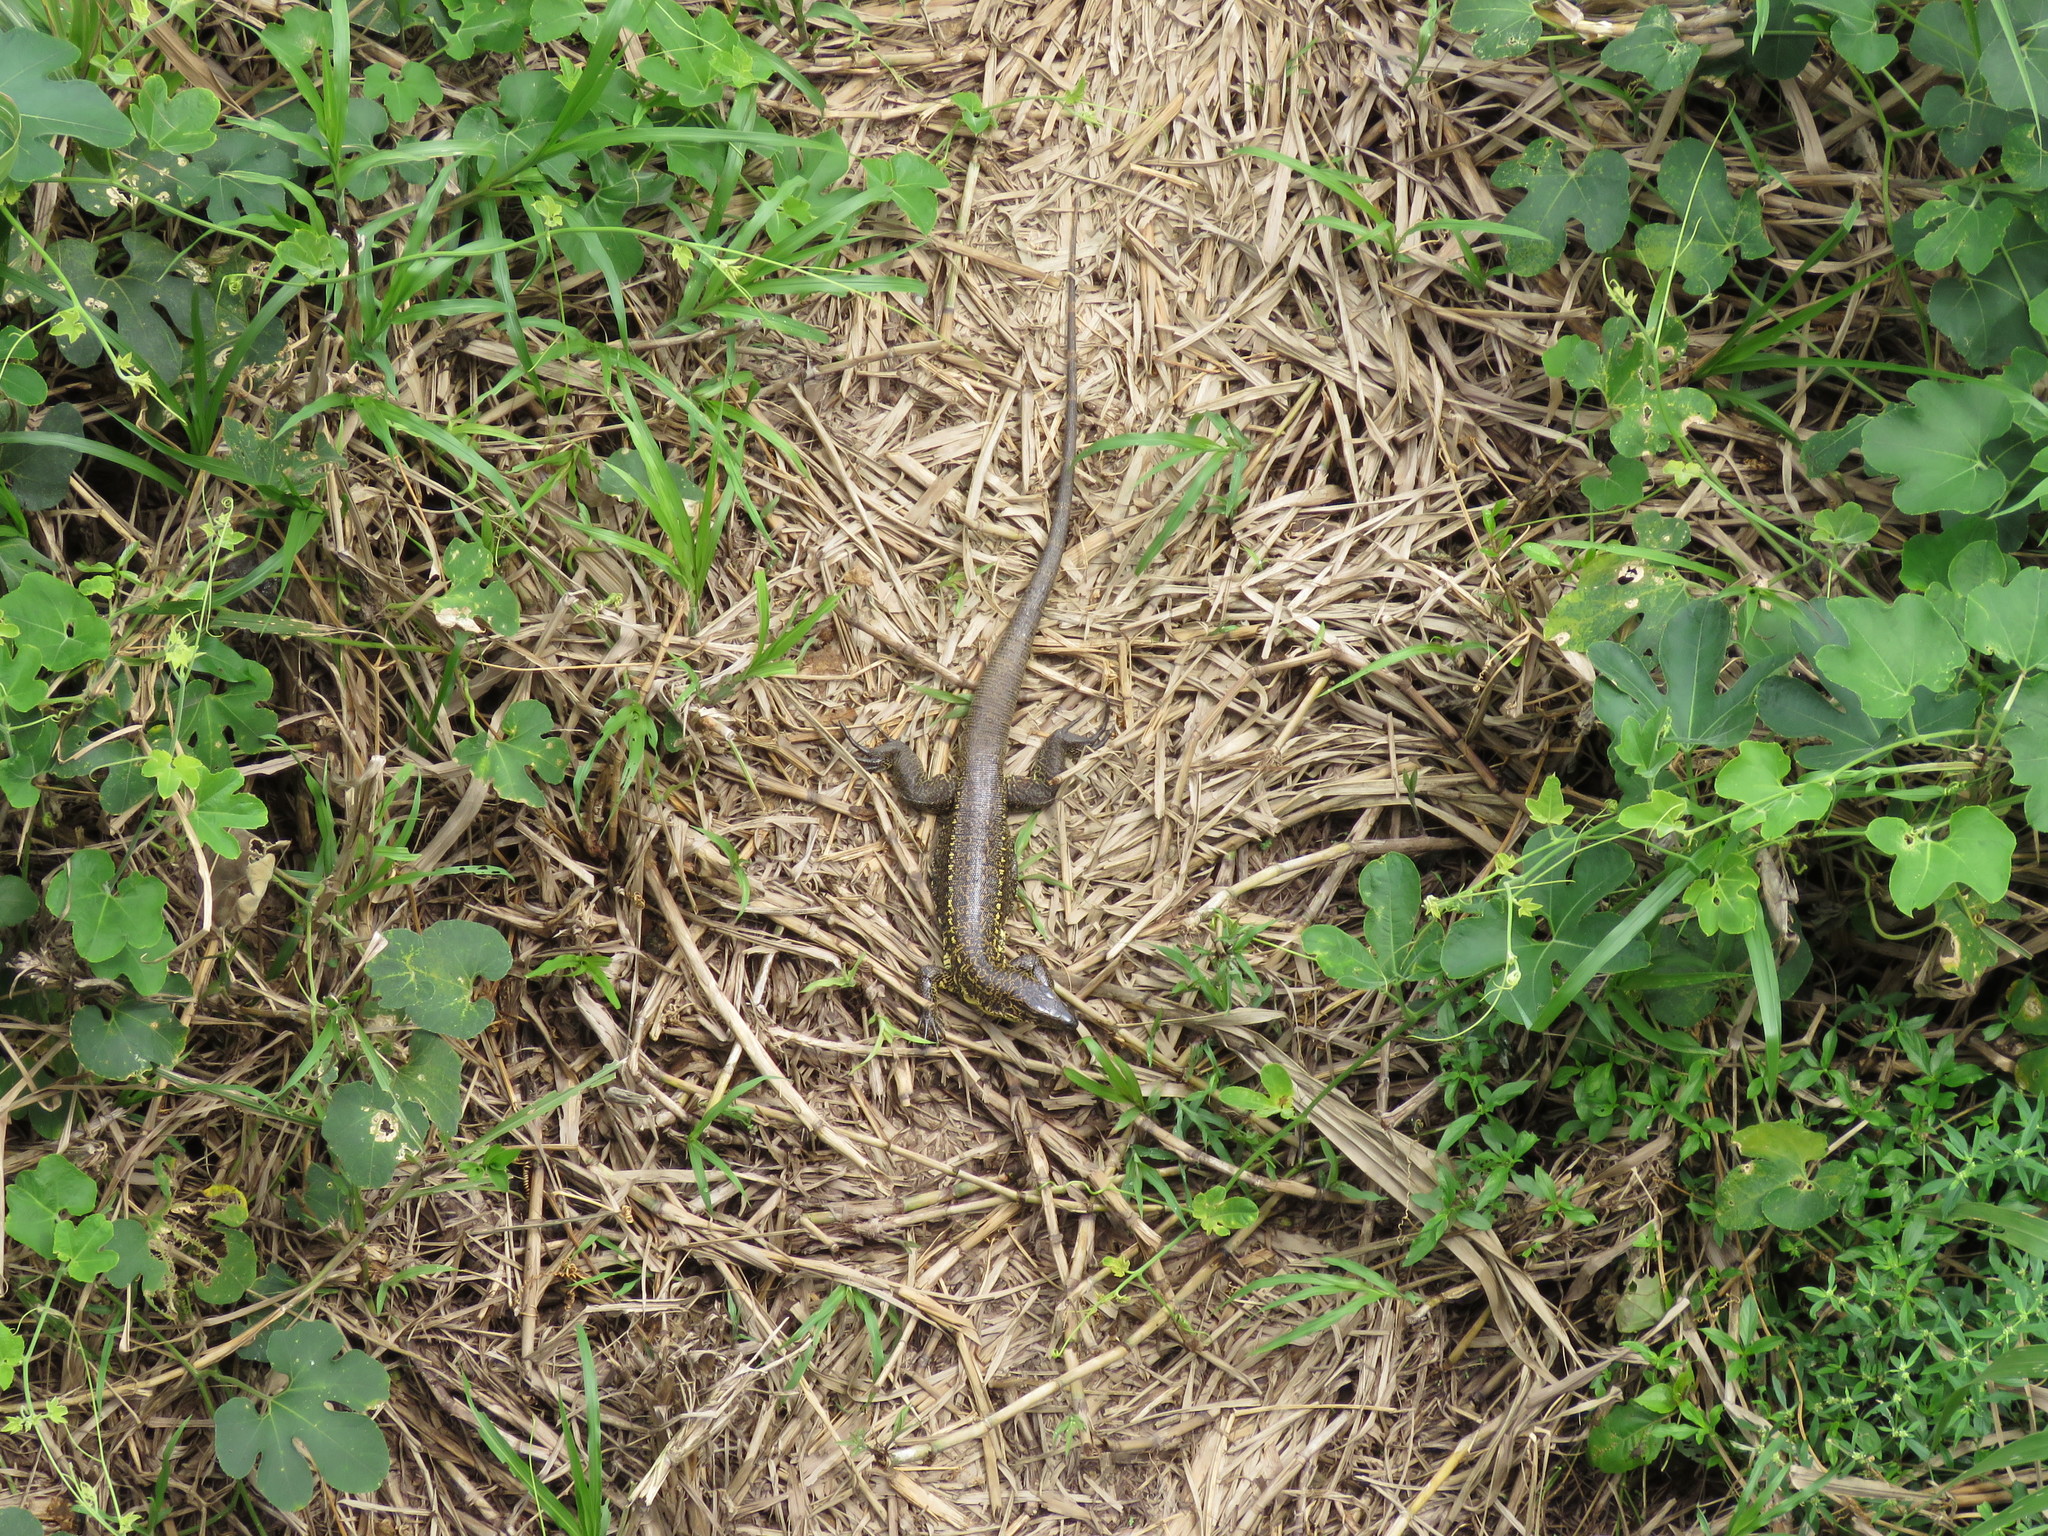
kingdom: Animalia
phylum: Chordata
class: Squamata
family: Teiidae
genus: Tupinambis
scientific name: Tupinambis cuzcoensis
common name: Cusco tegu lizard
